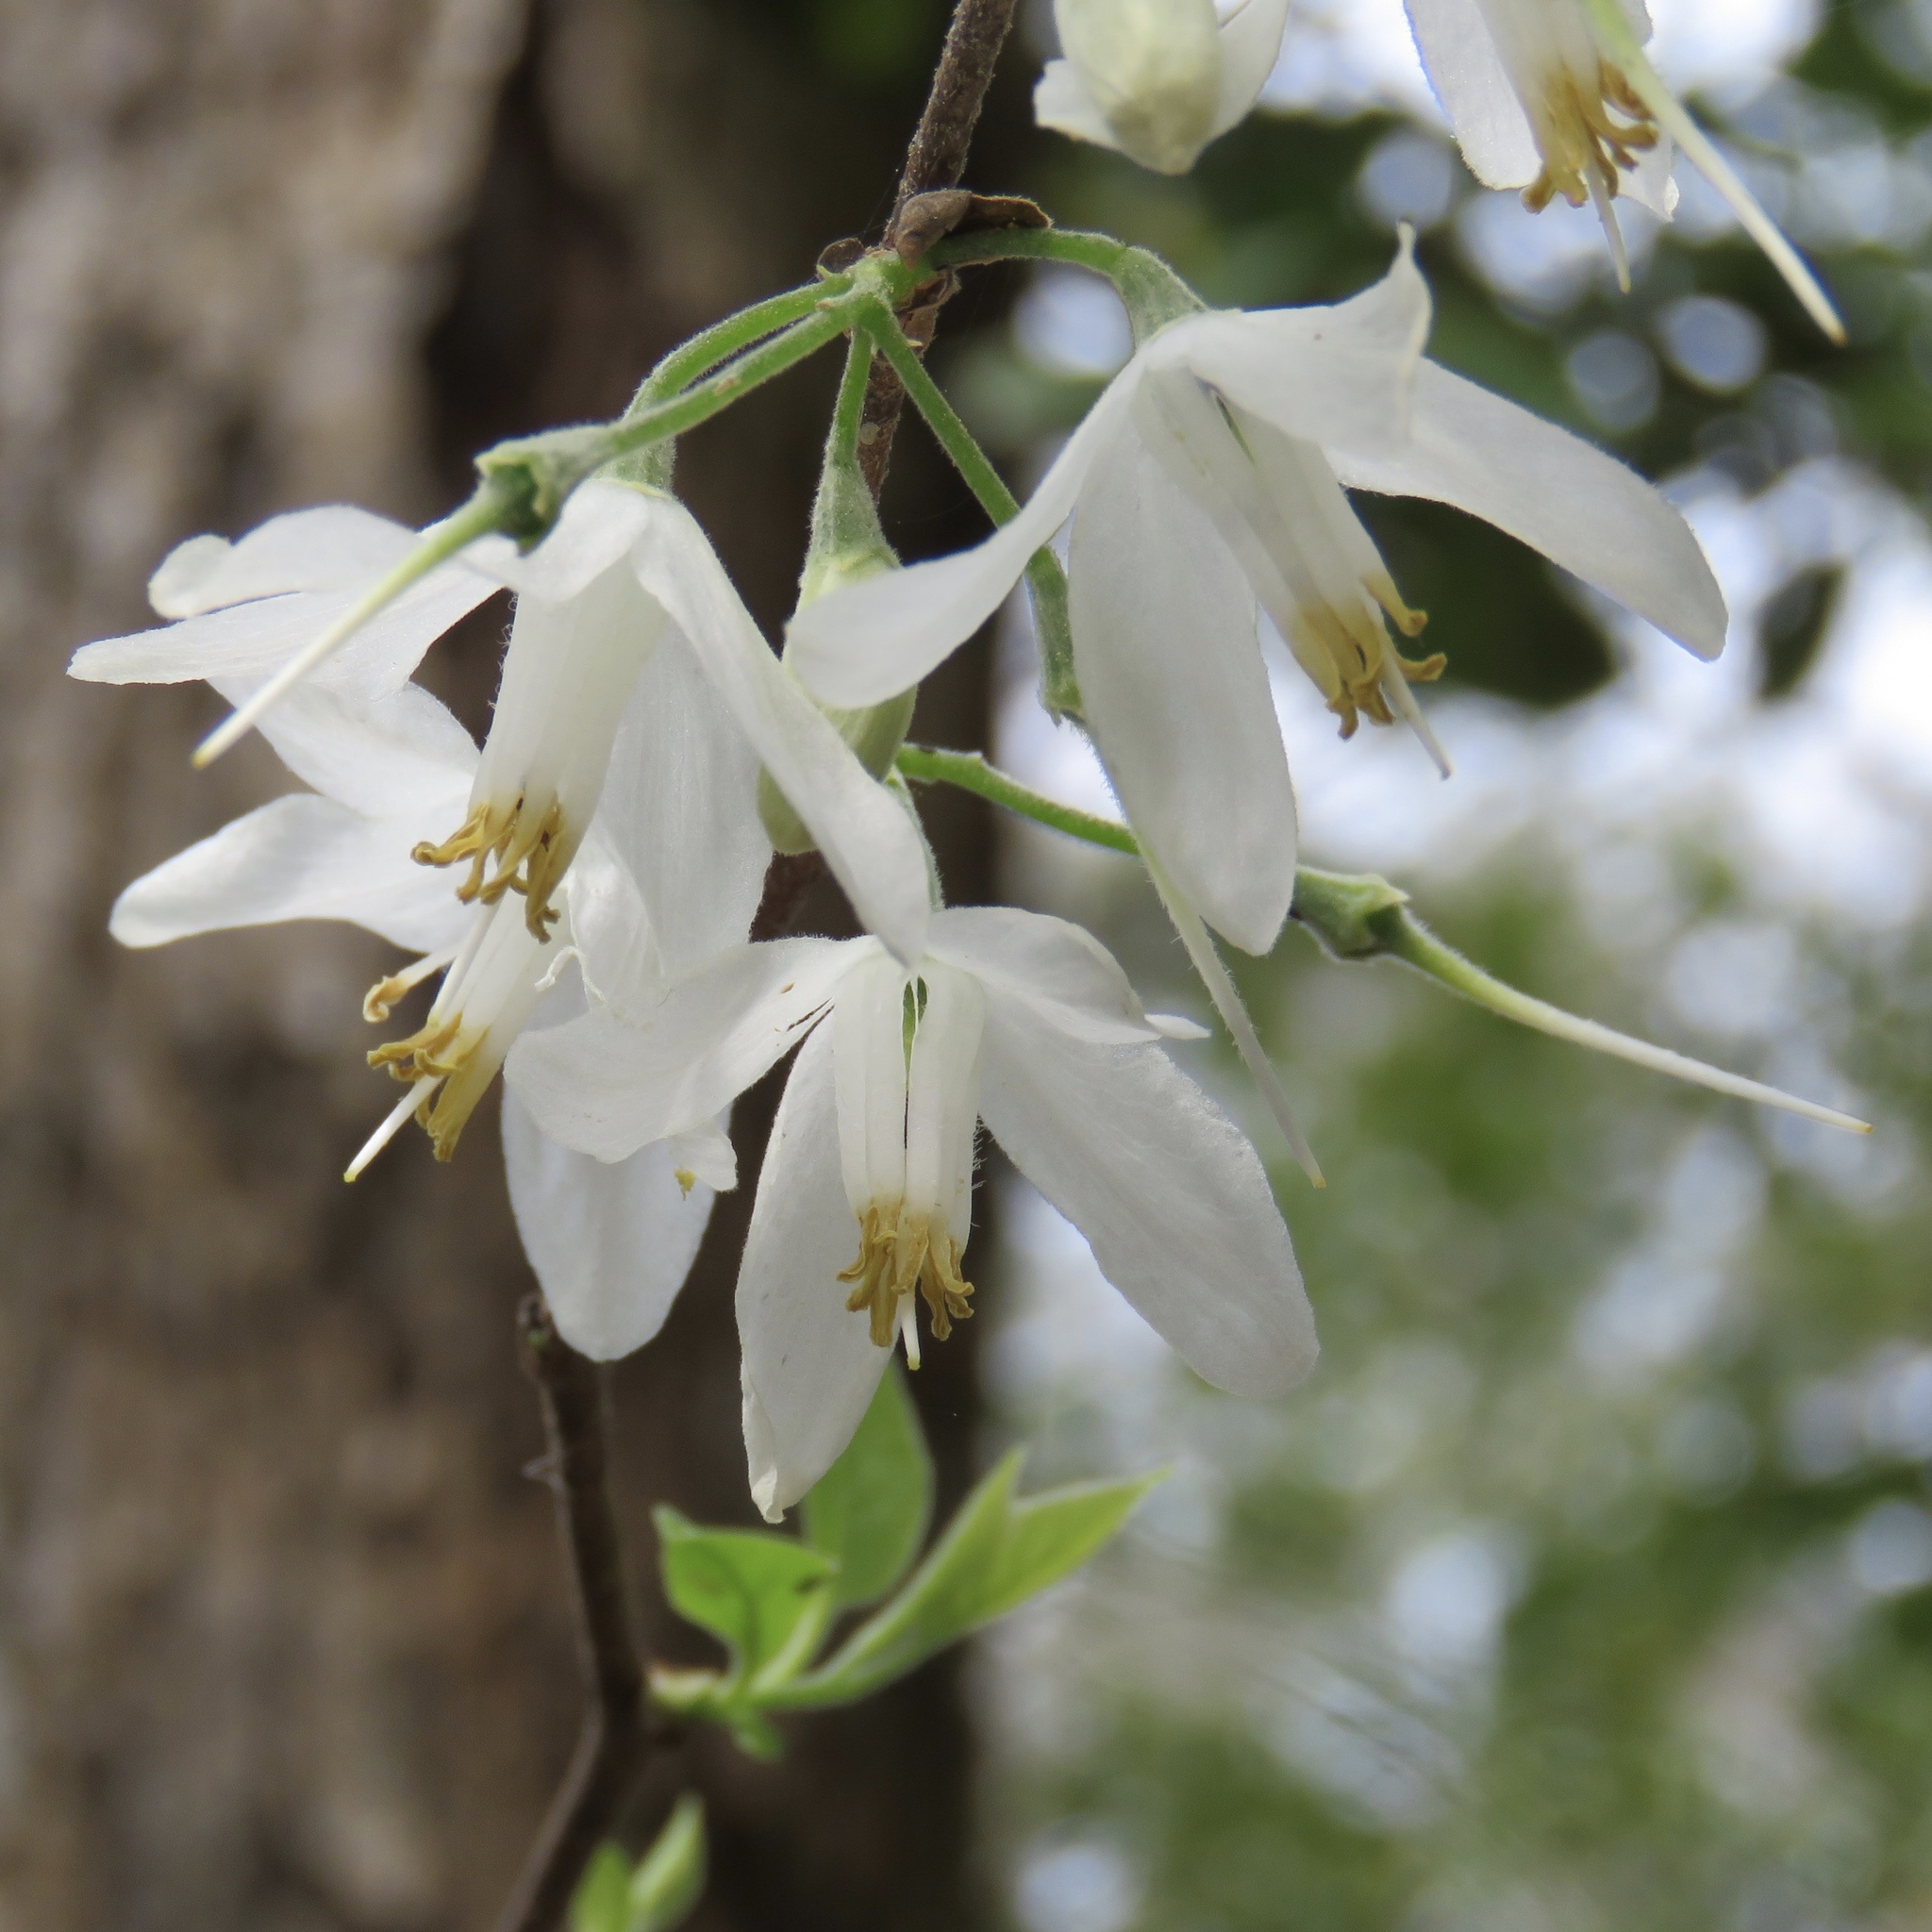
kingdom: Plantae
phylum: Tracheophyta
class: Magnoliopsida
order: Ericales
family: Styracaceae
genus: Halesia
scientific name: Halesia diptera
